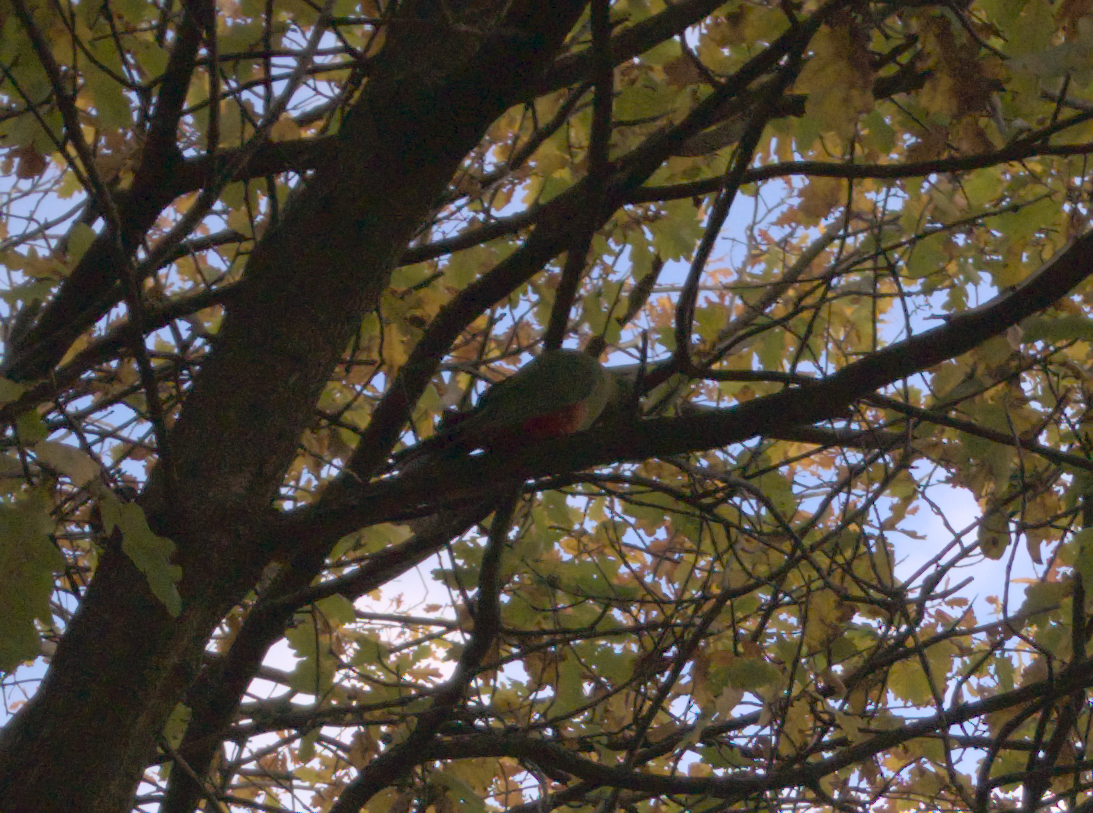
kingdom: Animalia
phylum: Chordata
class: Aves
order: Psittaciformes
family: Psittacidae
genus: Alisterus
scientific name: Alisterus scapularis
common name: Australian king parrot
